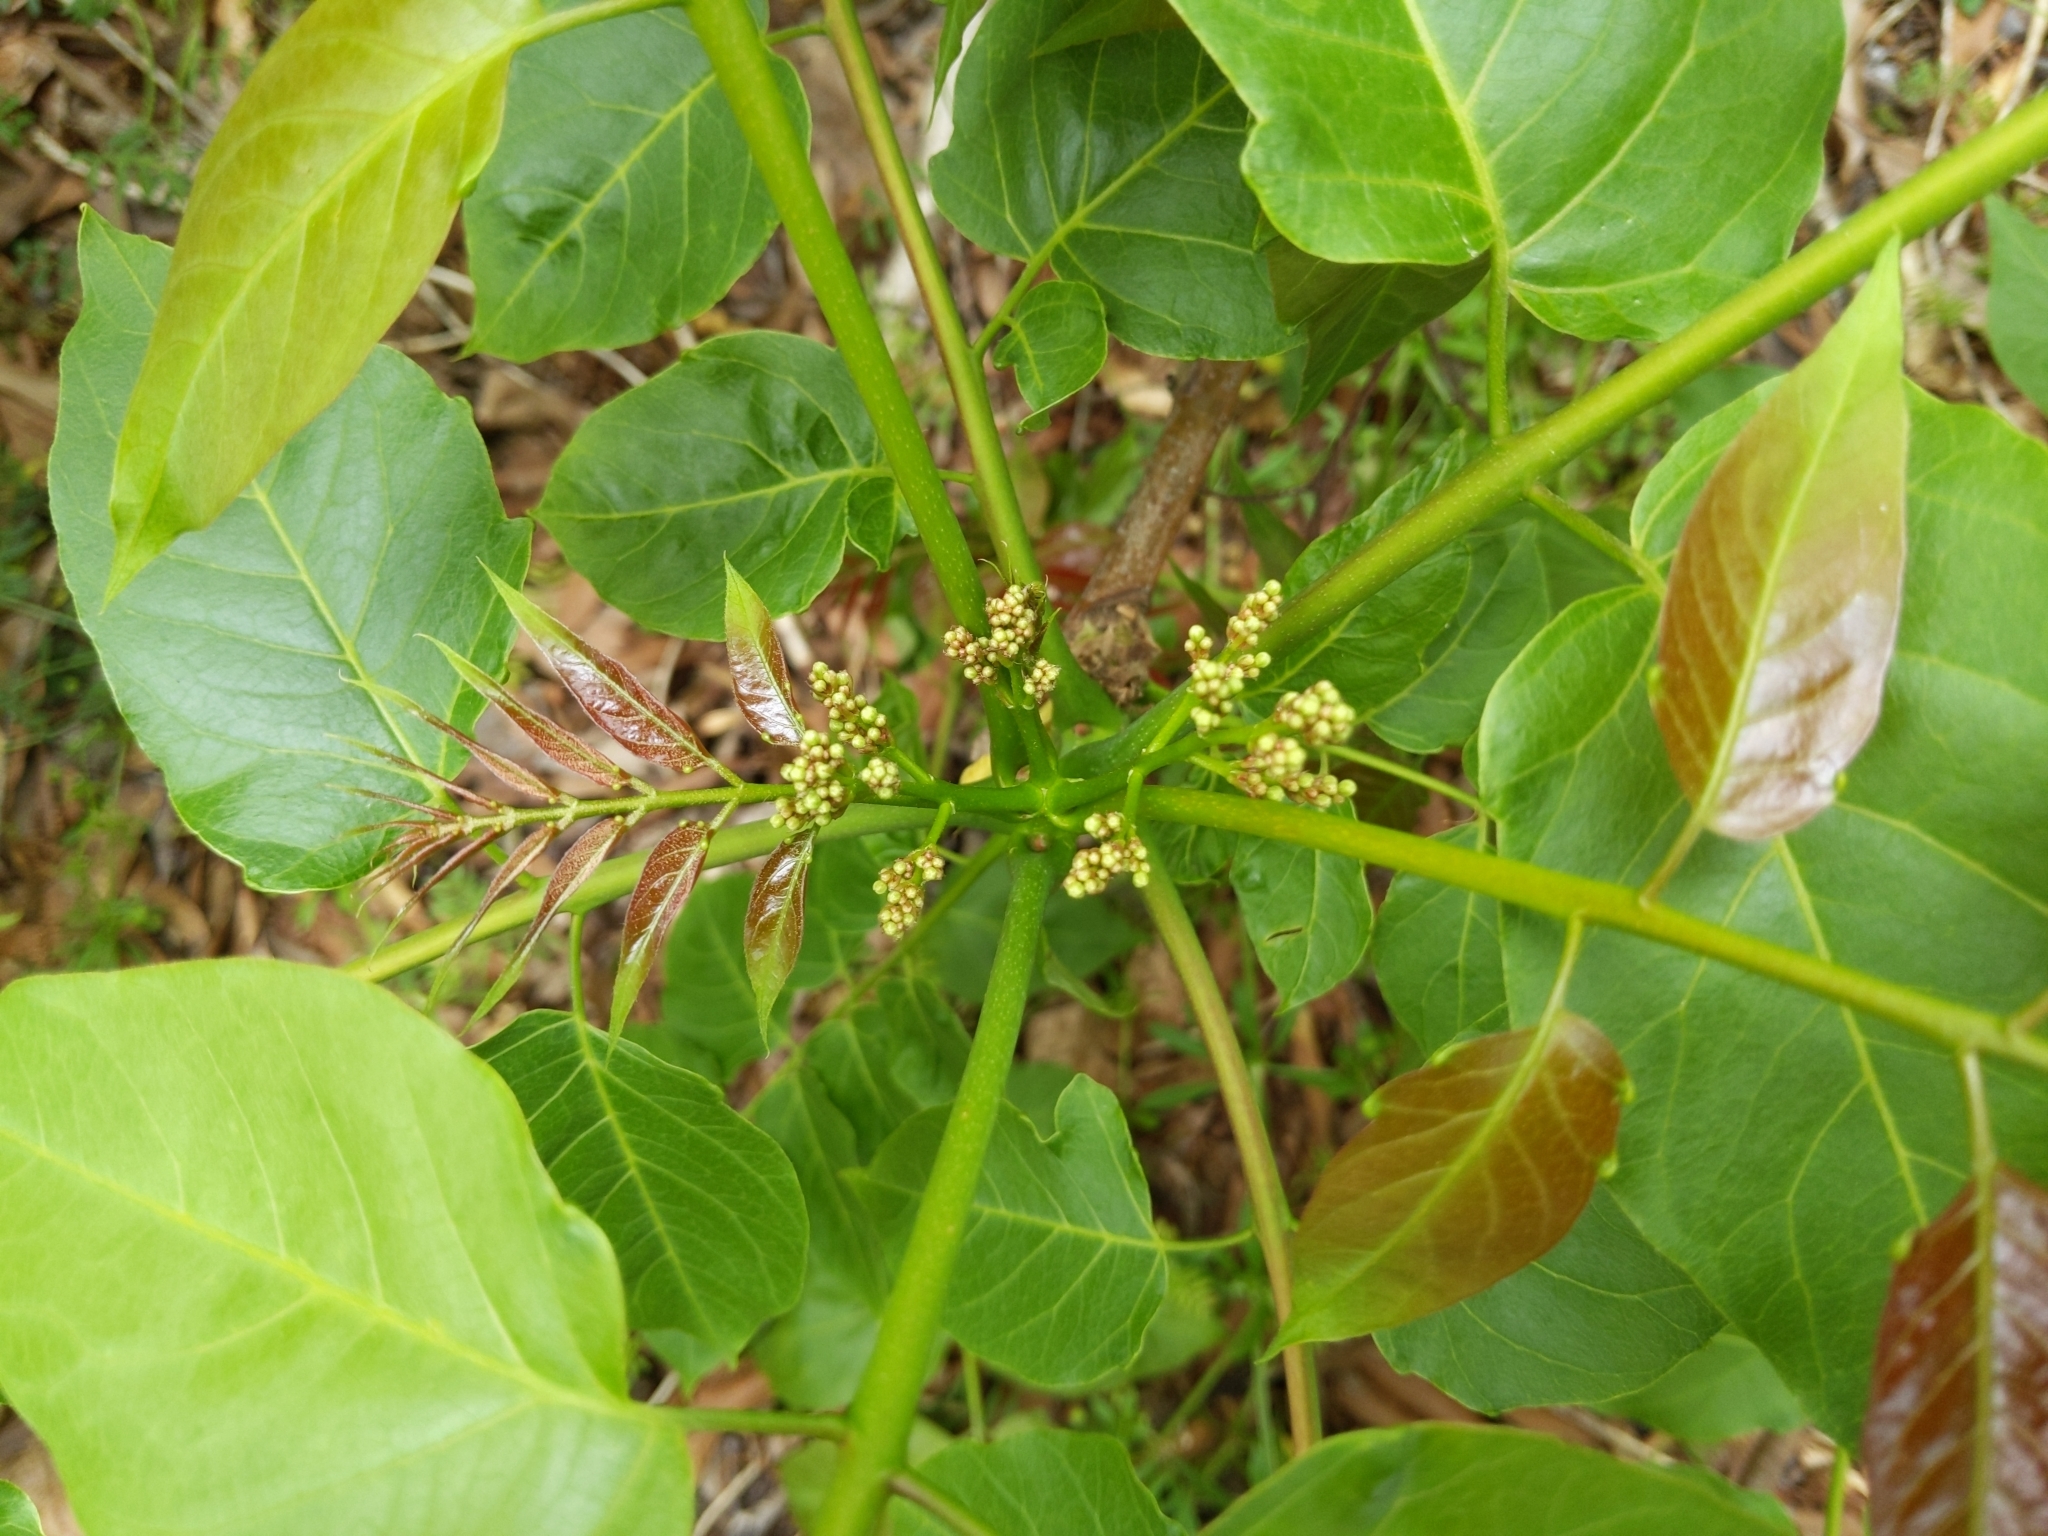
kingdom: Plantae
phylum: Tracheophyta
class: Magnoliopsida
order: Sapindales
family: Simaroubaceae
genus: Ailanthus
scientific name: Ailanthus altissima
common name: Tree-of-heaven
